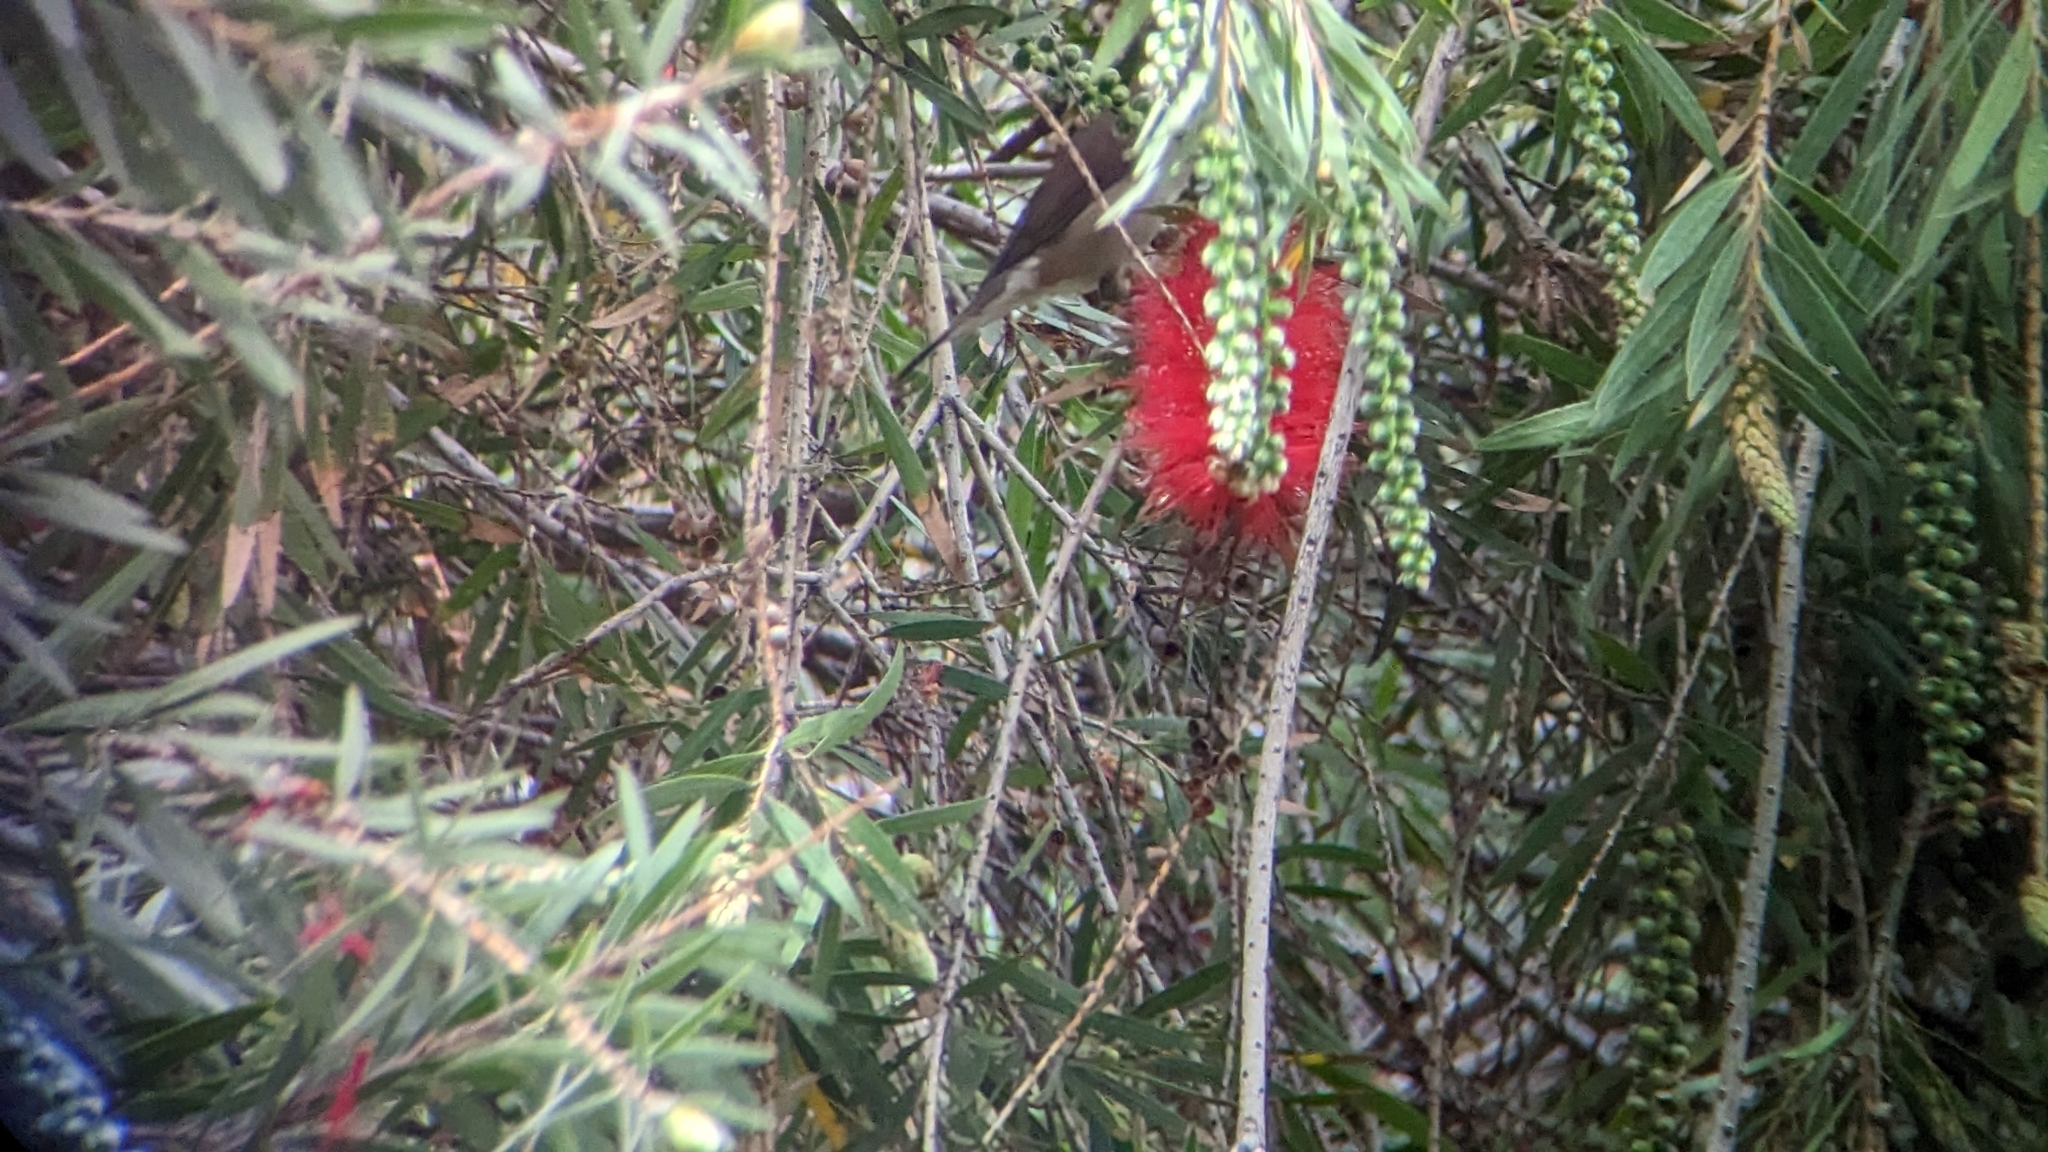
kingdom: Animalia
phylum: Chordata
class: Aves
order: Passeriformes
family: Sylviidae
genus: Sylvia
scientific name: Sylvia atricapilla
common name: Eurasian blackcap
